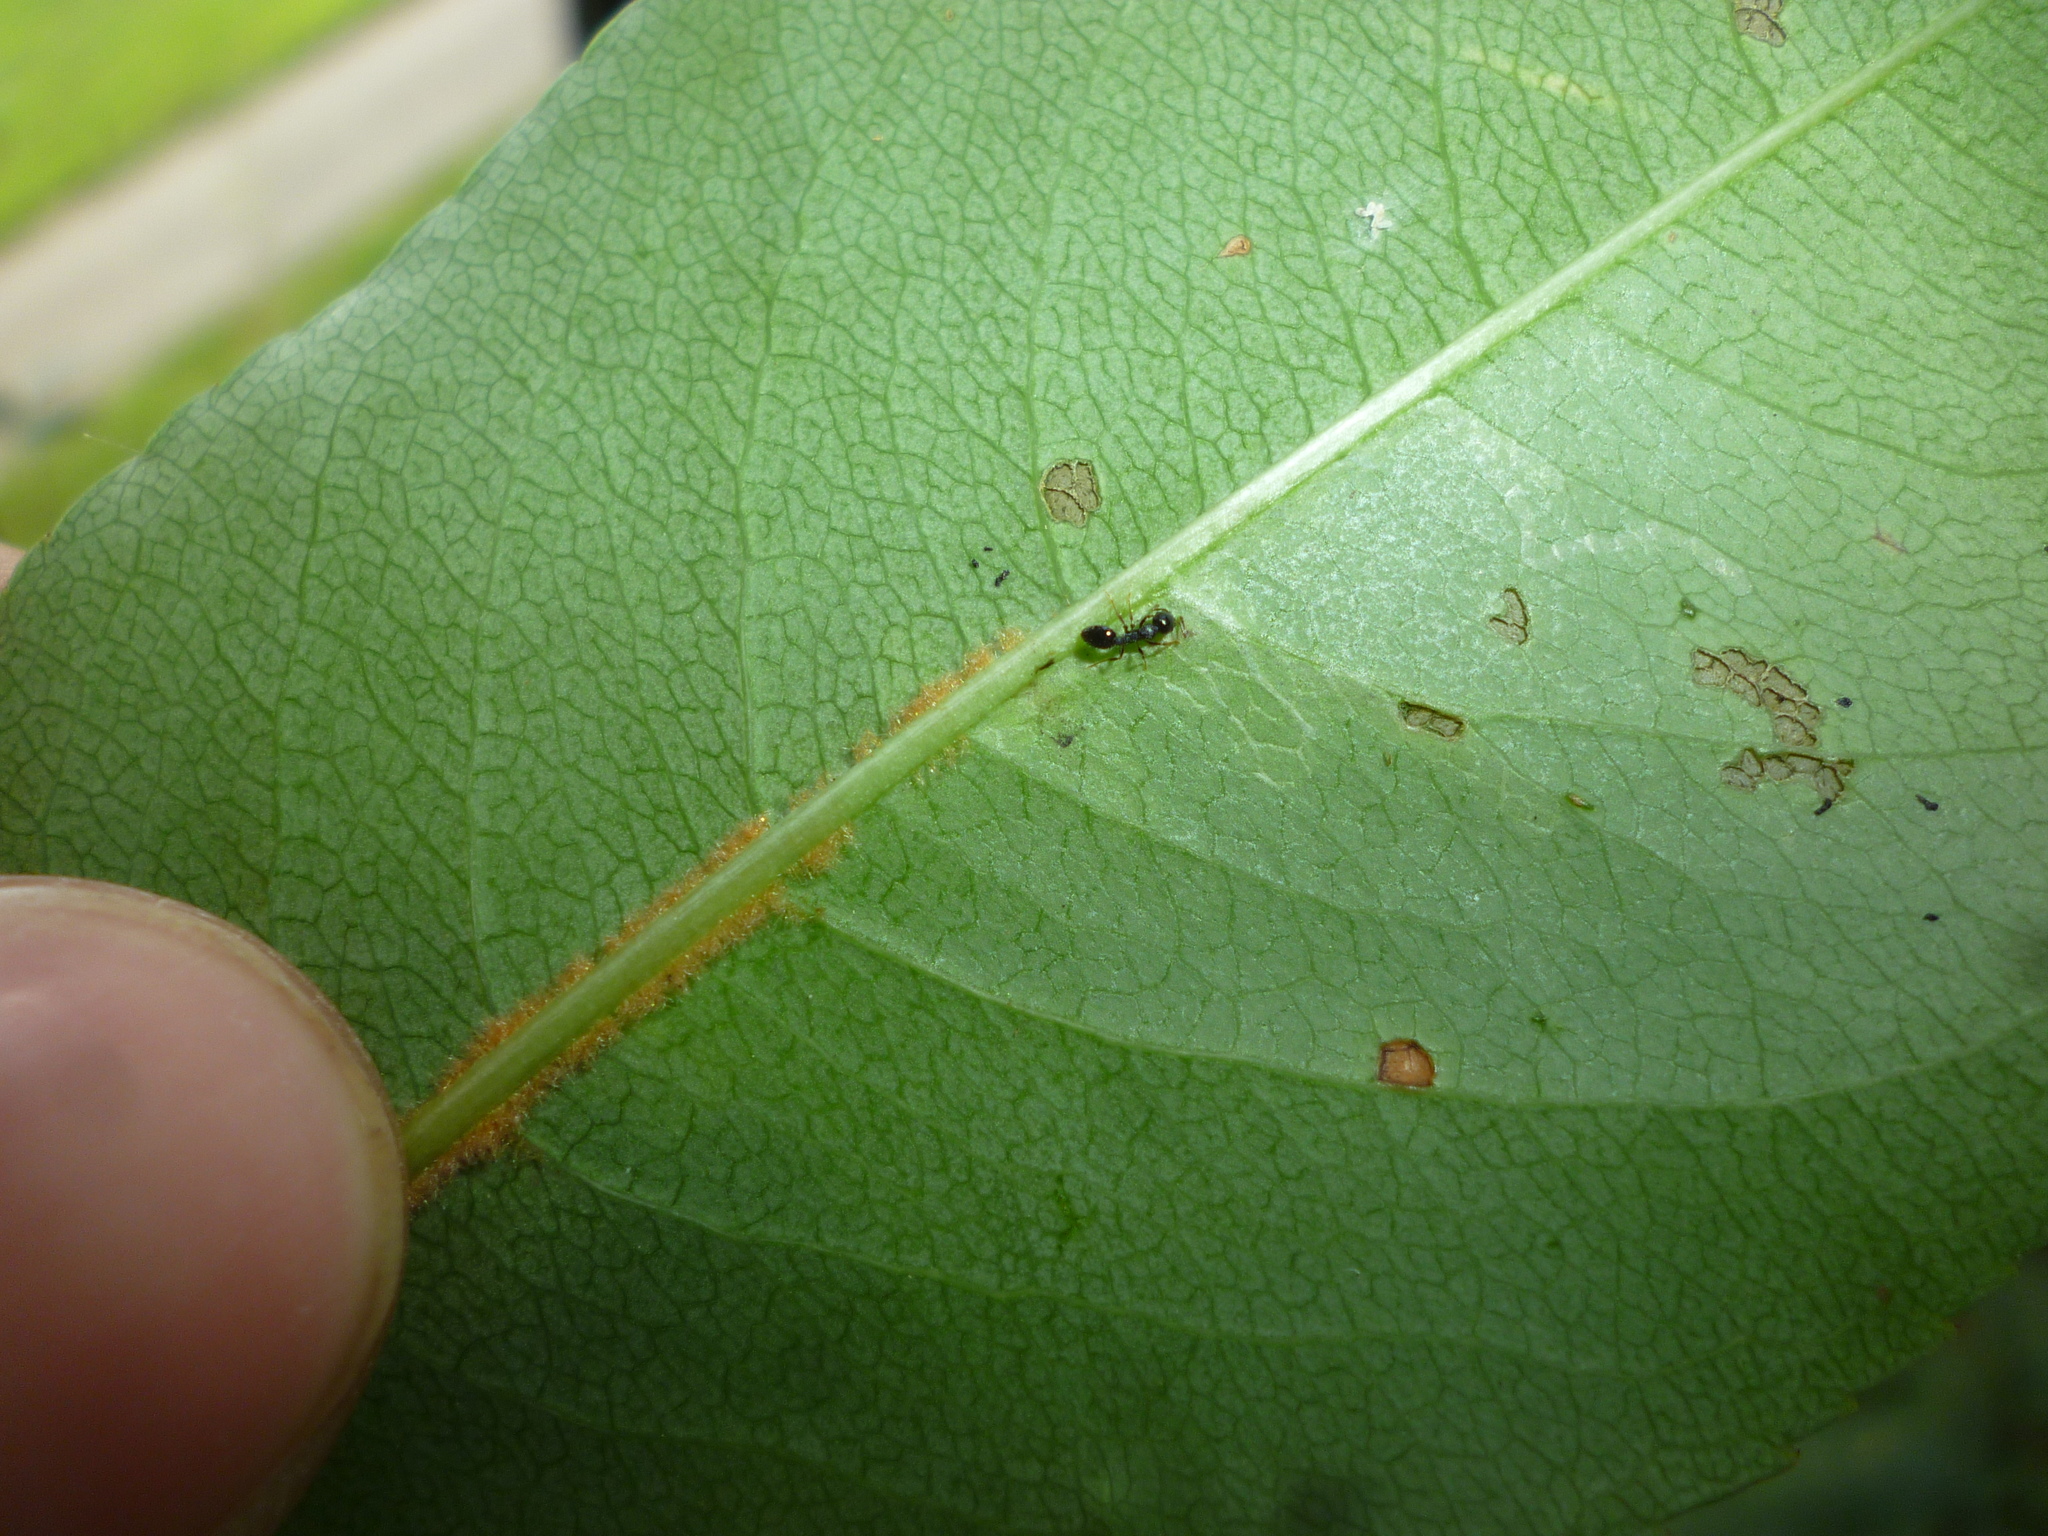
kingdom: Plantae
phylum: Tracheophyta
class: Magnoliopsida
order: Rosales
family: Rosaceae
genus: Prunus
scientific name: Prunus serotina
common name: Black cherry
